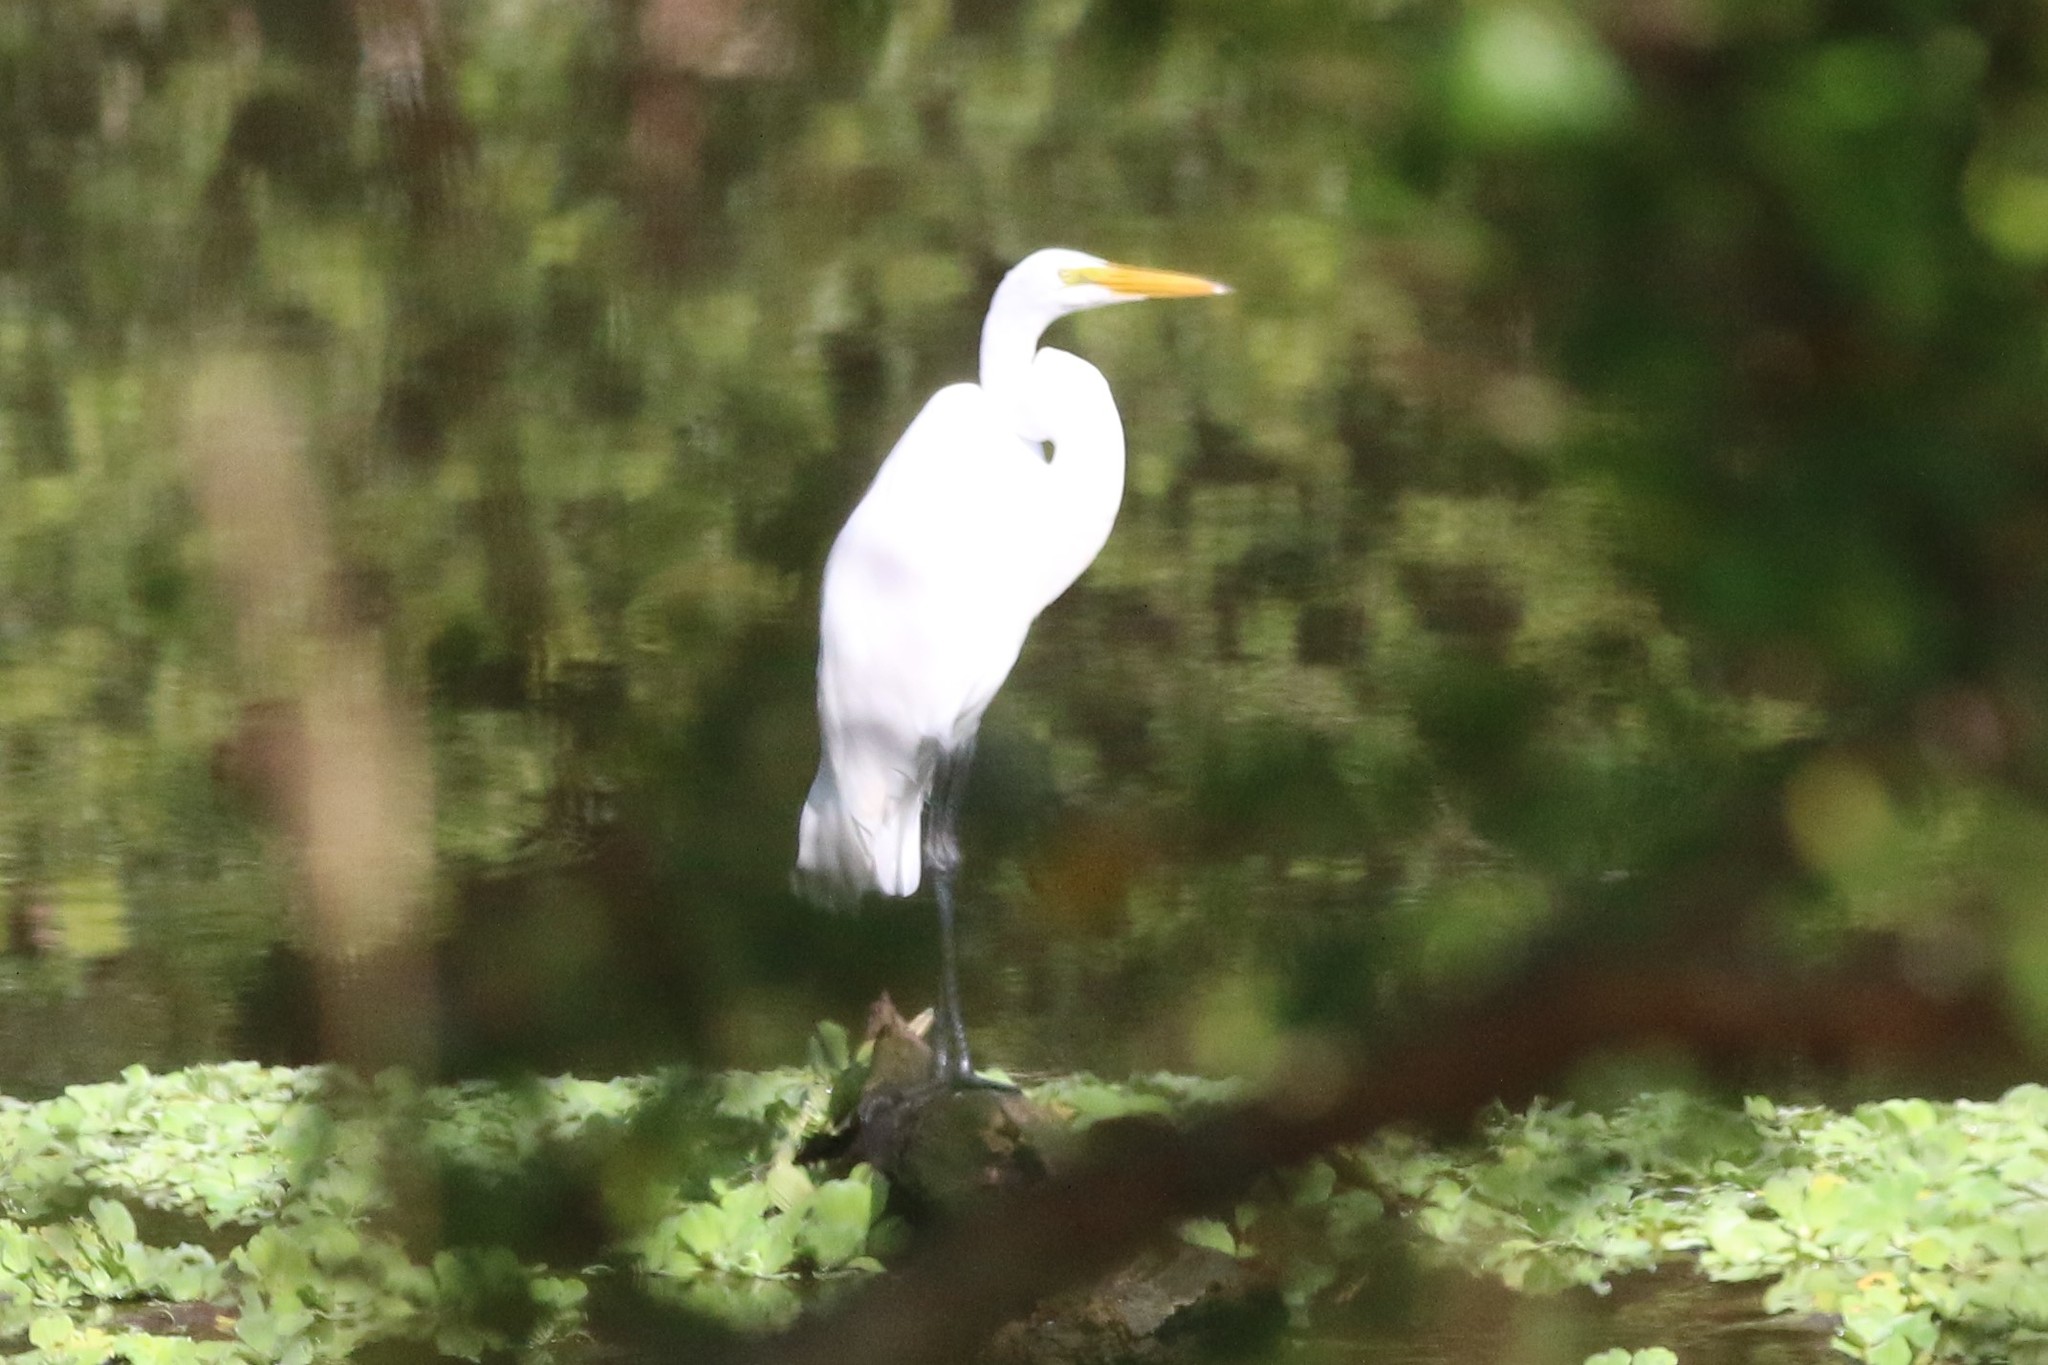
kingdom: Animalia
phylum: Chordata
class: Aves
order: Pelecaniformes
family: Ardeidae
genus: Ardea
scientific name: Ardea alba
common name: Great egret
